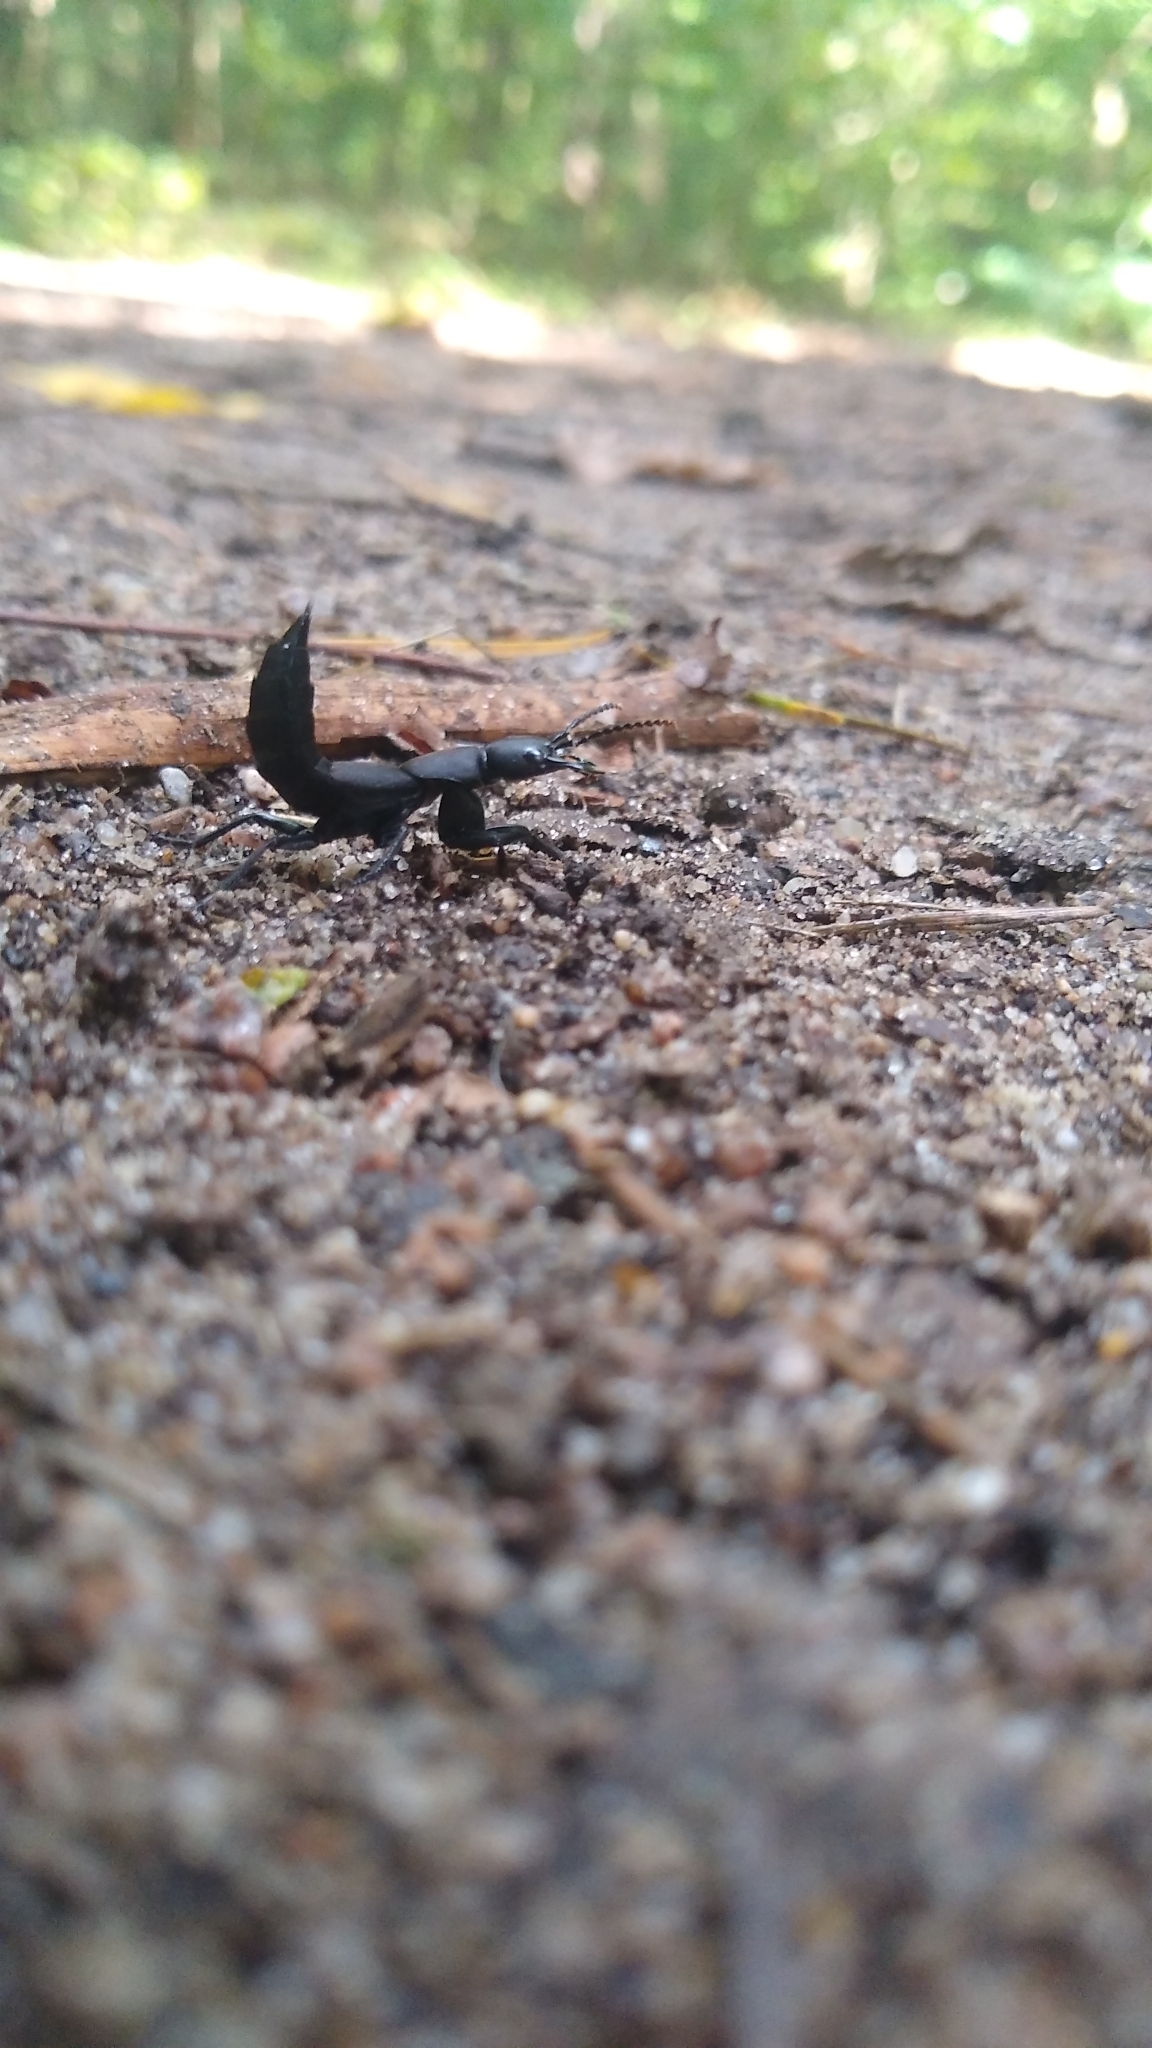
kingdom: Animalia
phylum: Arthropoda
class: Insecta
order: Coleoptera
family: Staphylinidae
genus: Ocypus
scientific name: Ocypus olens
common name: Devil's coach-horse
